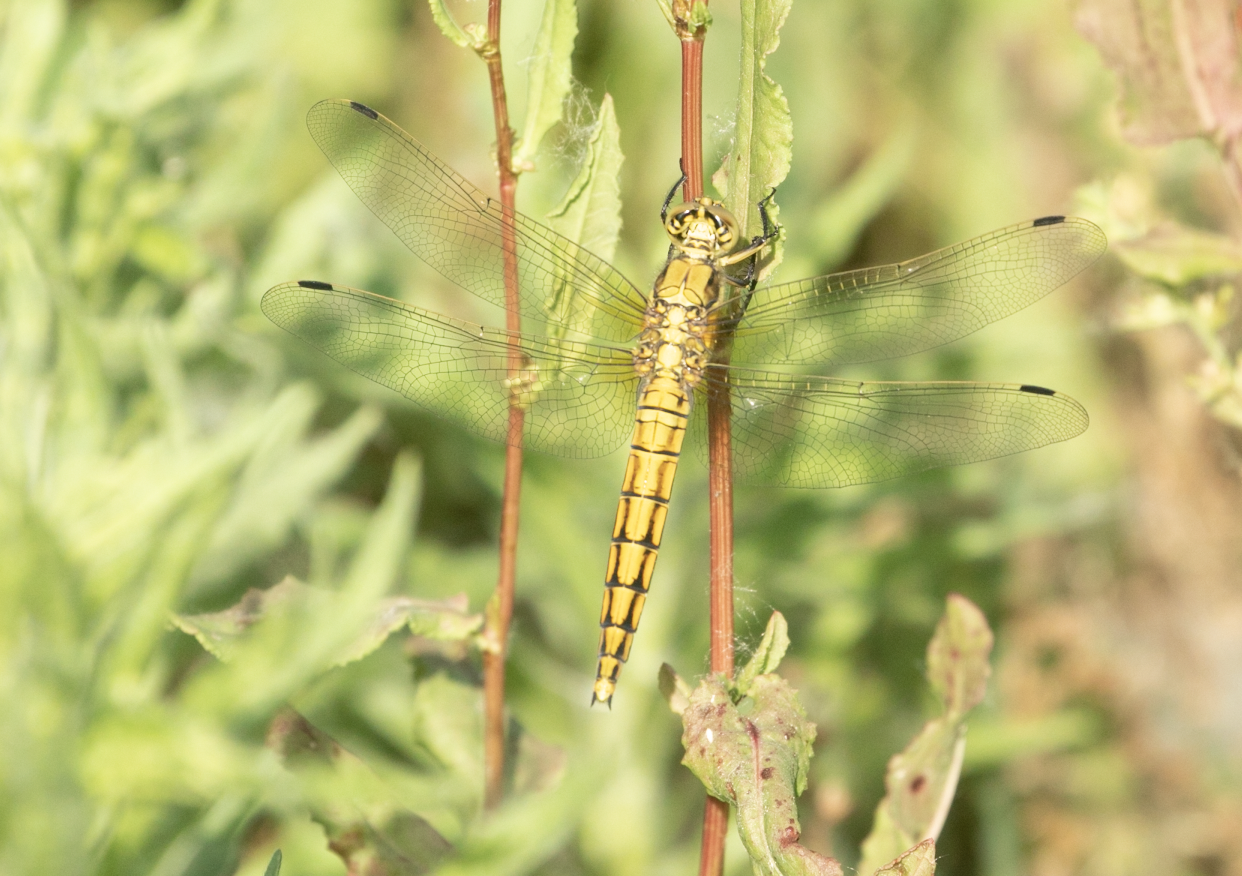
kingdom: Animalia
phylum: Arthropoda
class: Insecta
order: Odonata
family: Libellulidae
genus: Orthetrum
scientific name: Orthetrum cancellatum
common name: Black-tailed skimmer
